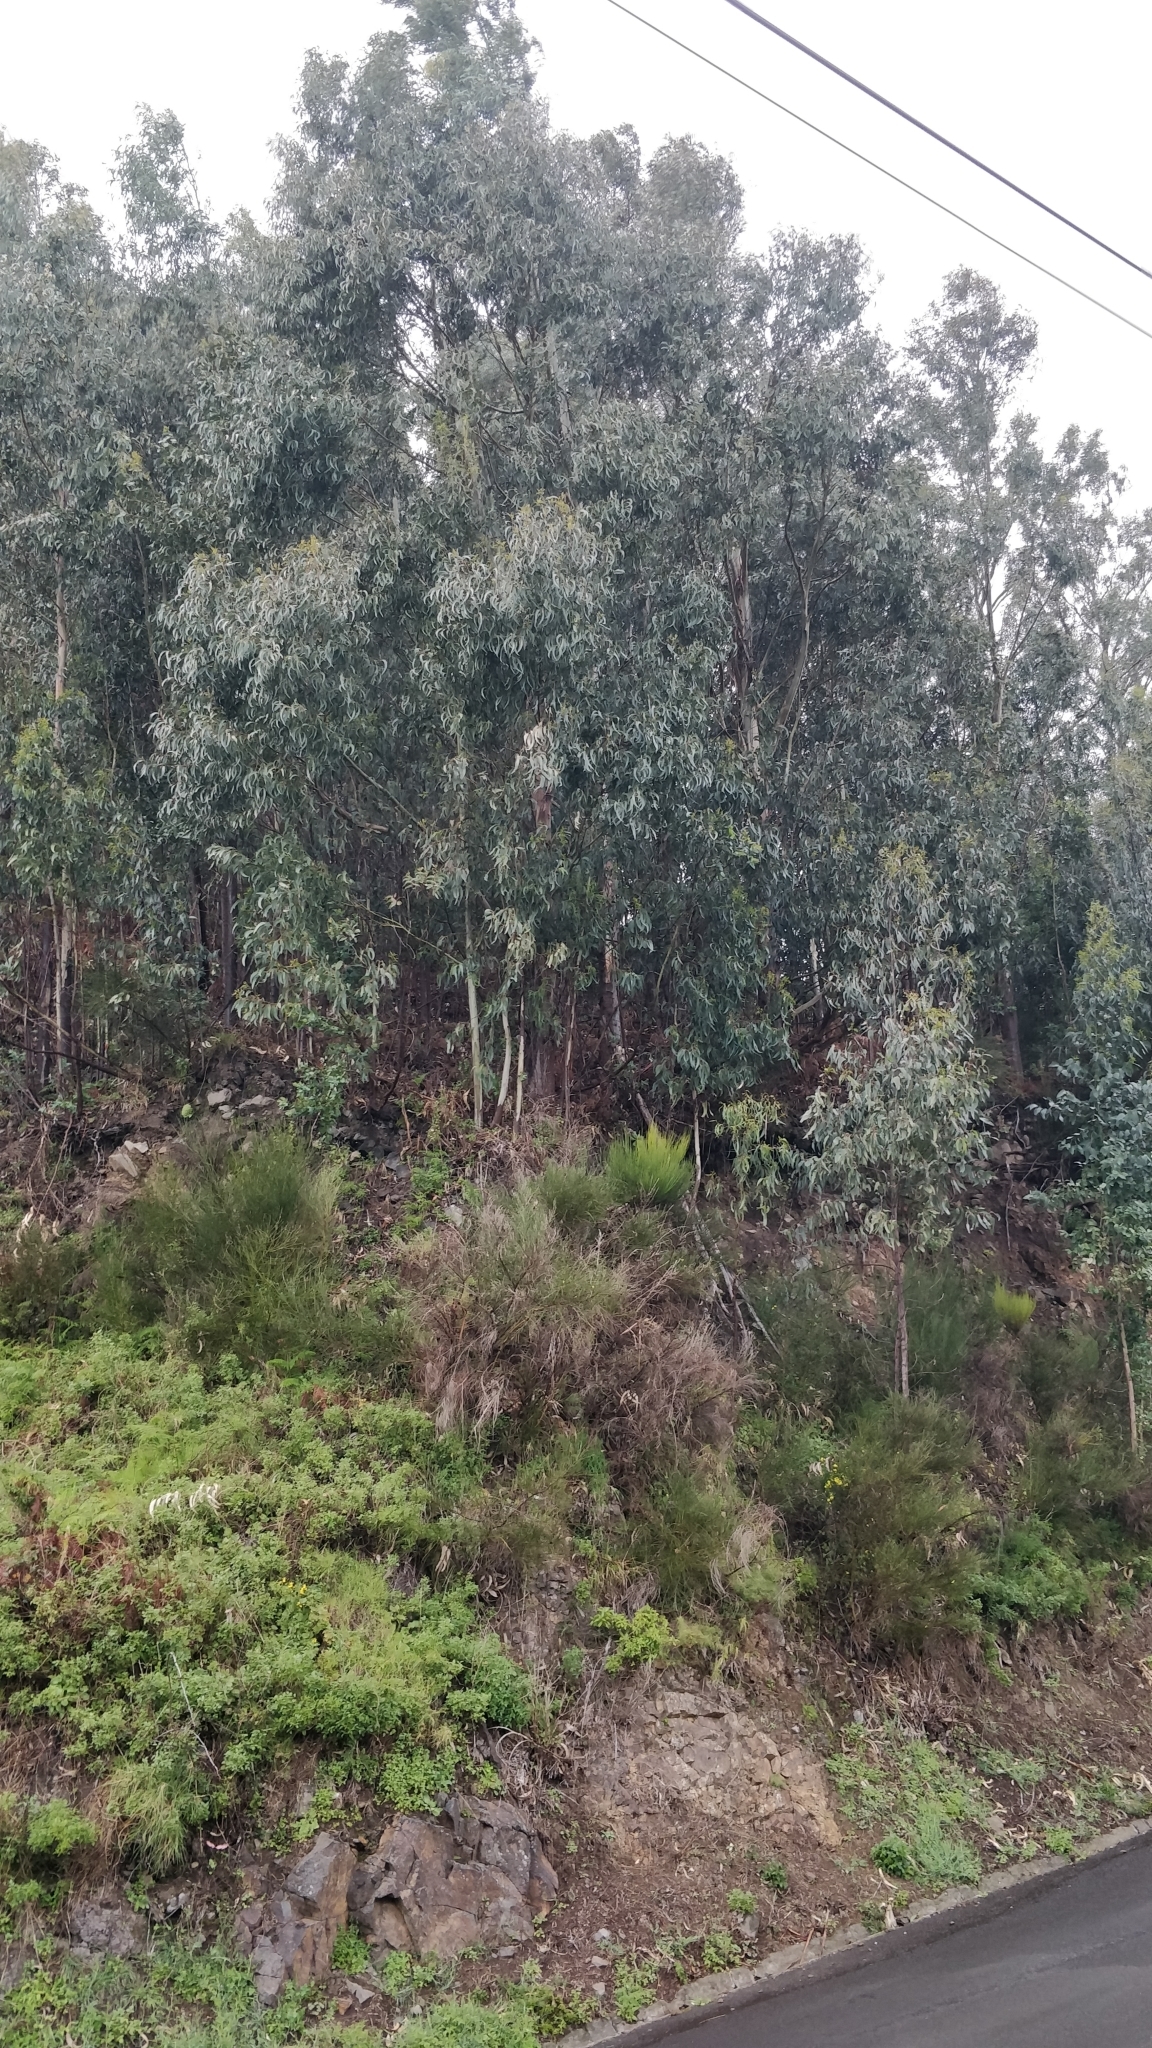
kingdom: Plantae
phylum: Tracheophyta
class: Magnoliopsida
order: Myrtales
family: Myrtaceae
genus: Eucalyptus
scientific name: Eucalyptus globulus
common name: Southern blue-gum
